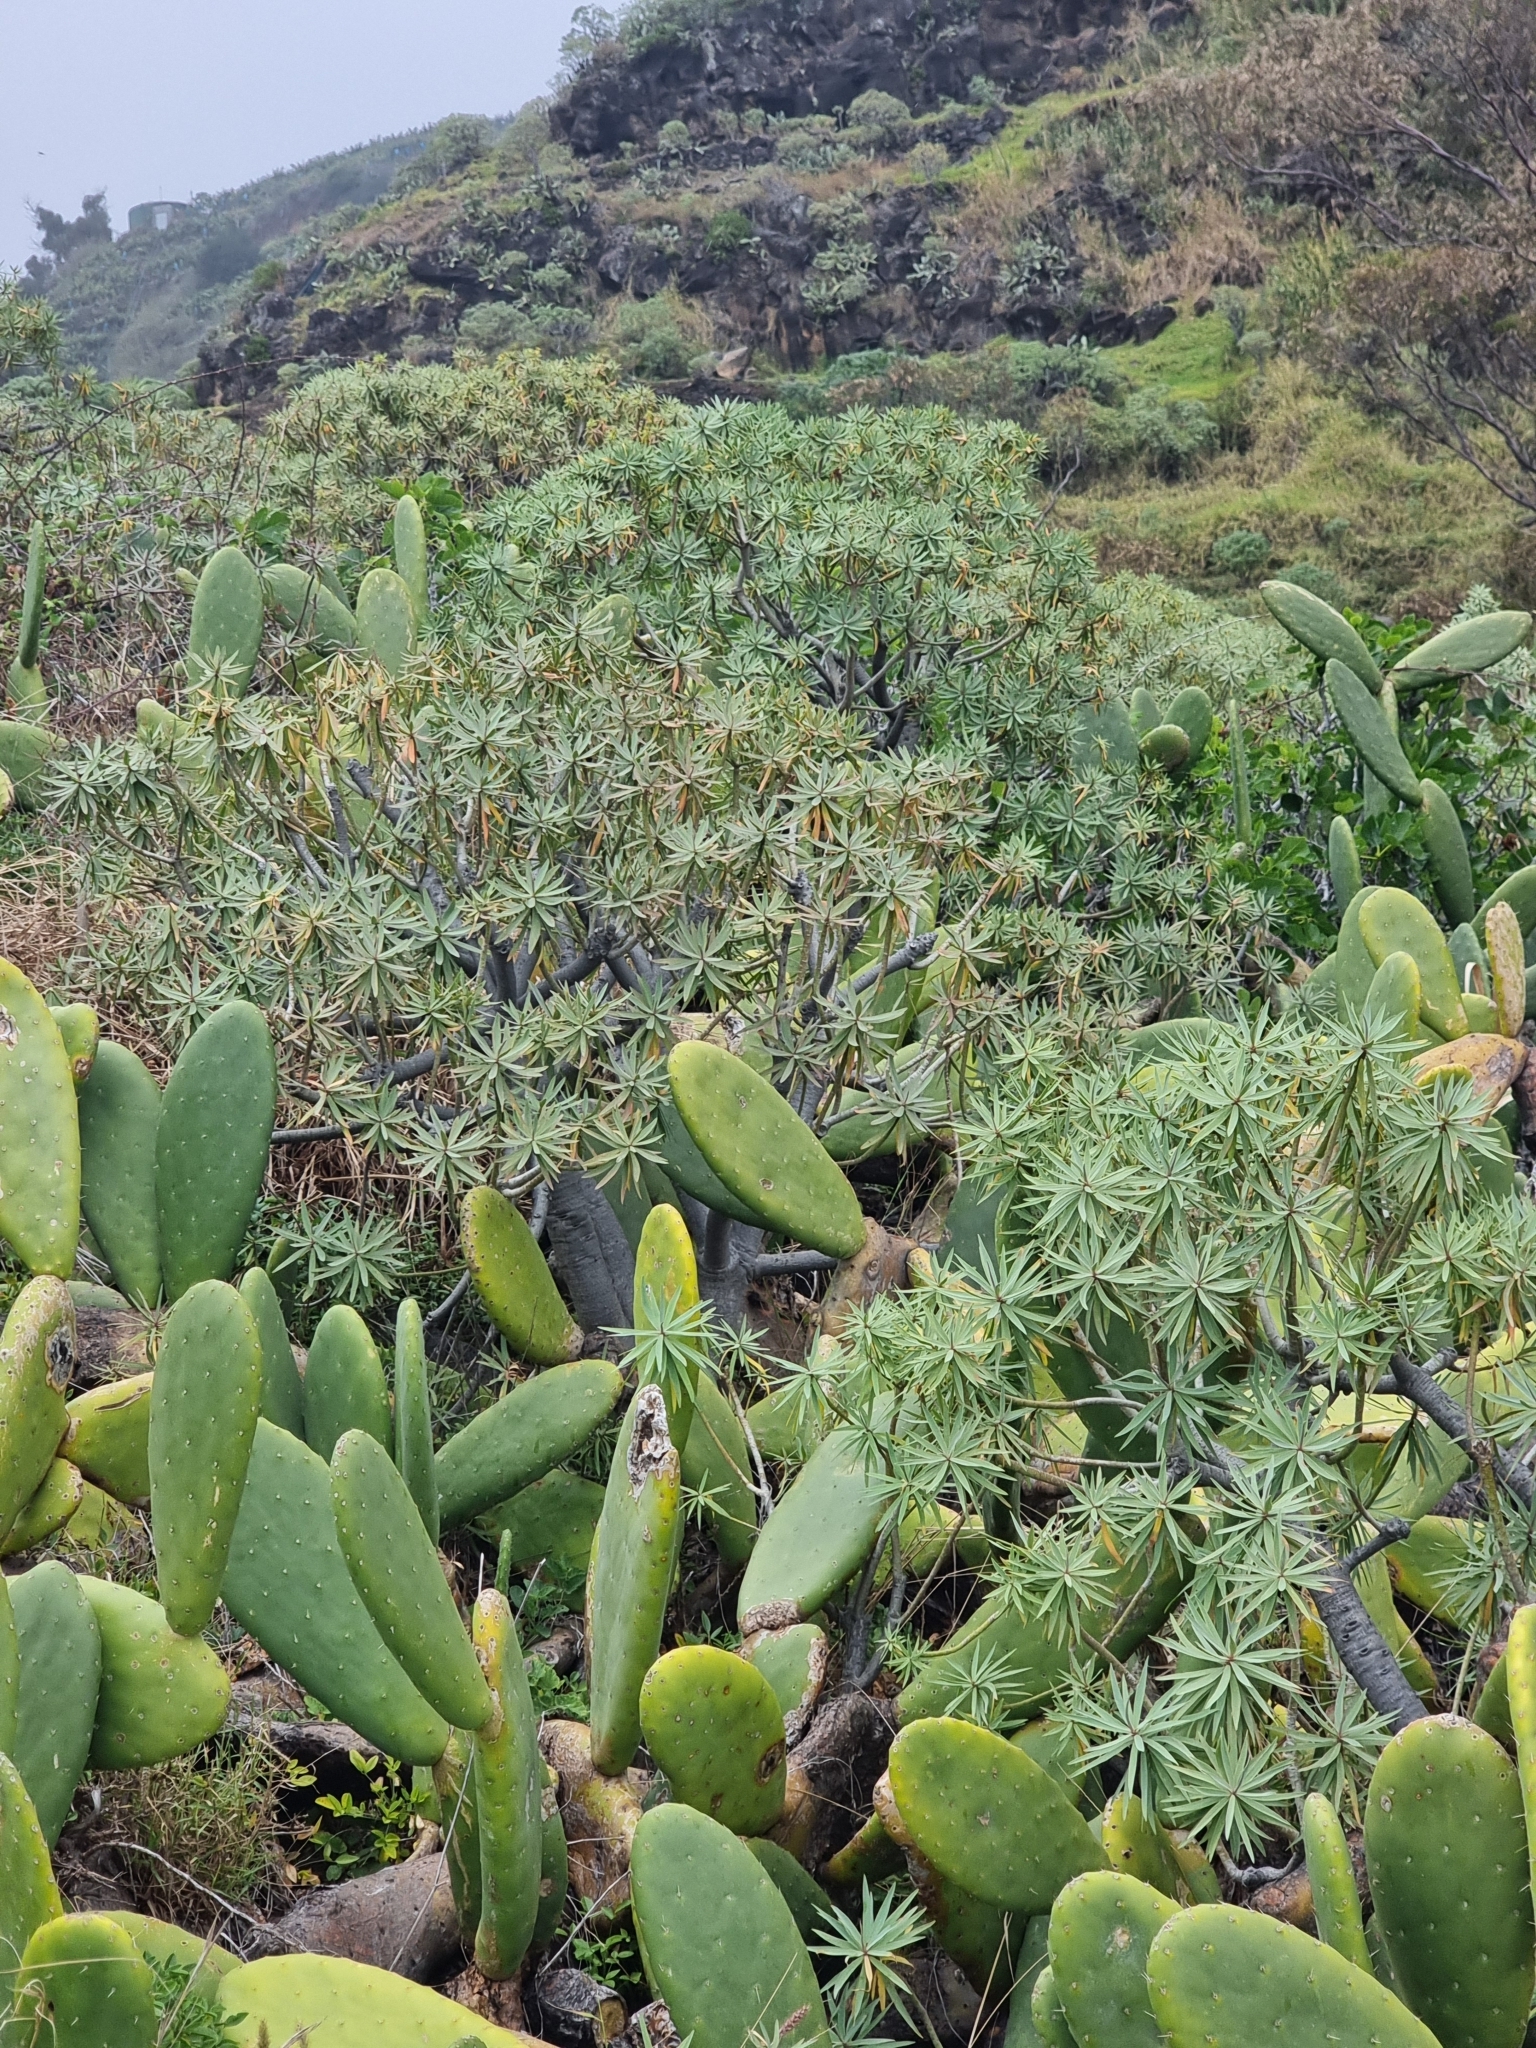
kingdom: Plantae
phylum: Tracheophyta
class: Magnoliopsida
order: Malpighiales
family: Euphorbiaceae
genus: Euphorbia
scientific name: Euphorbia piscatoria
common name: Fish-stunning spurge
